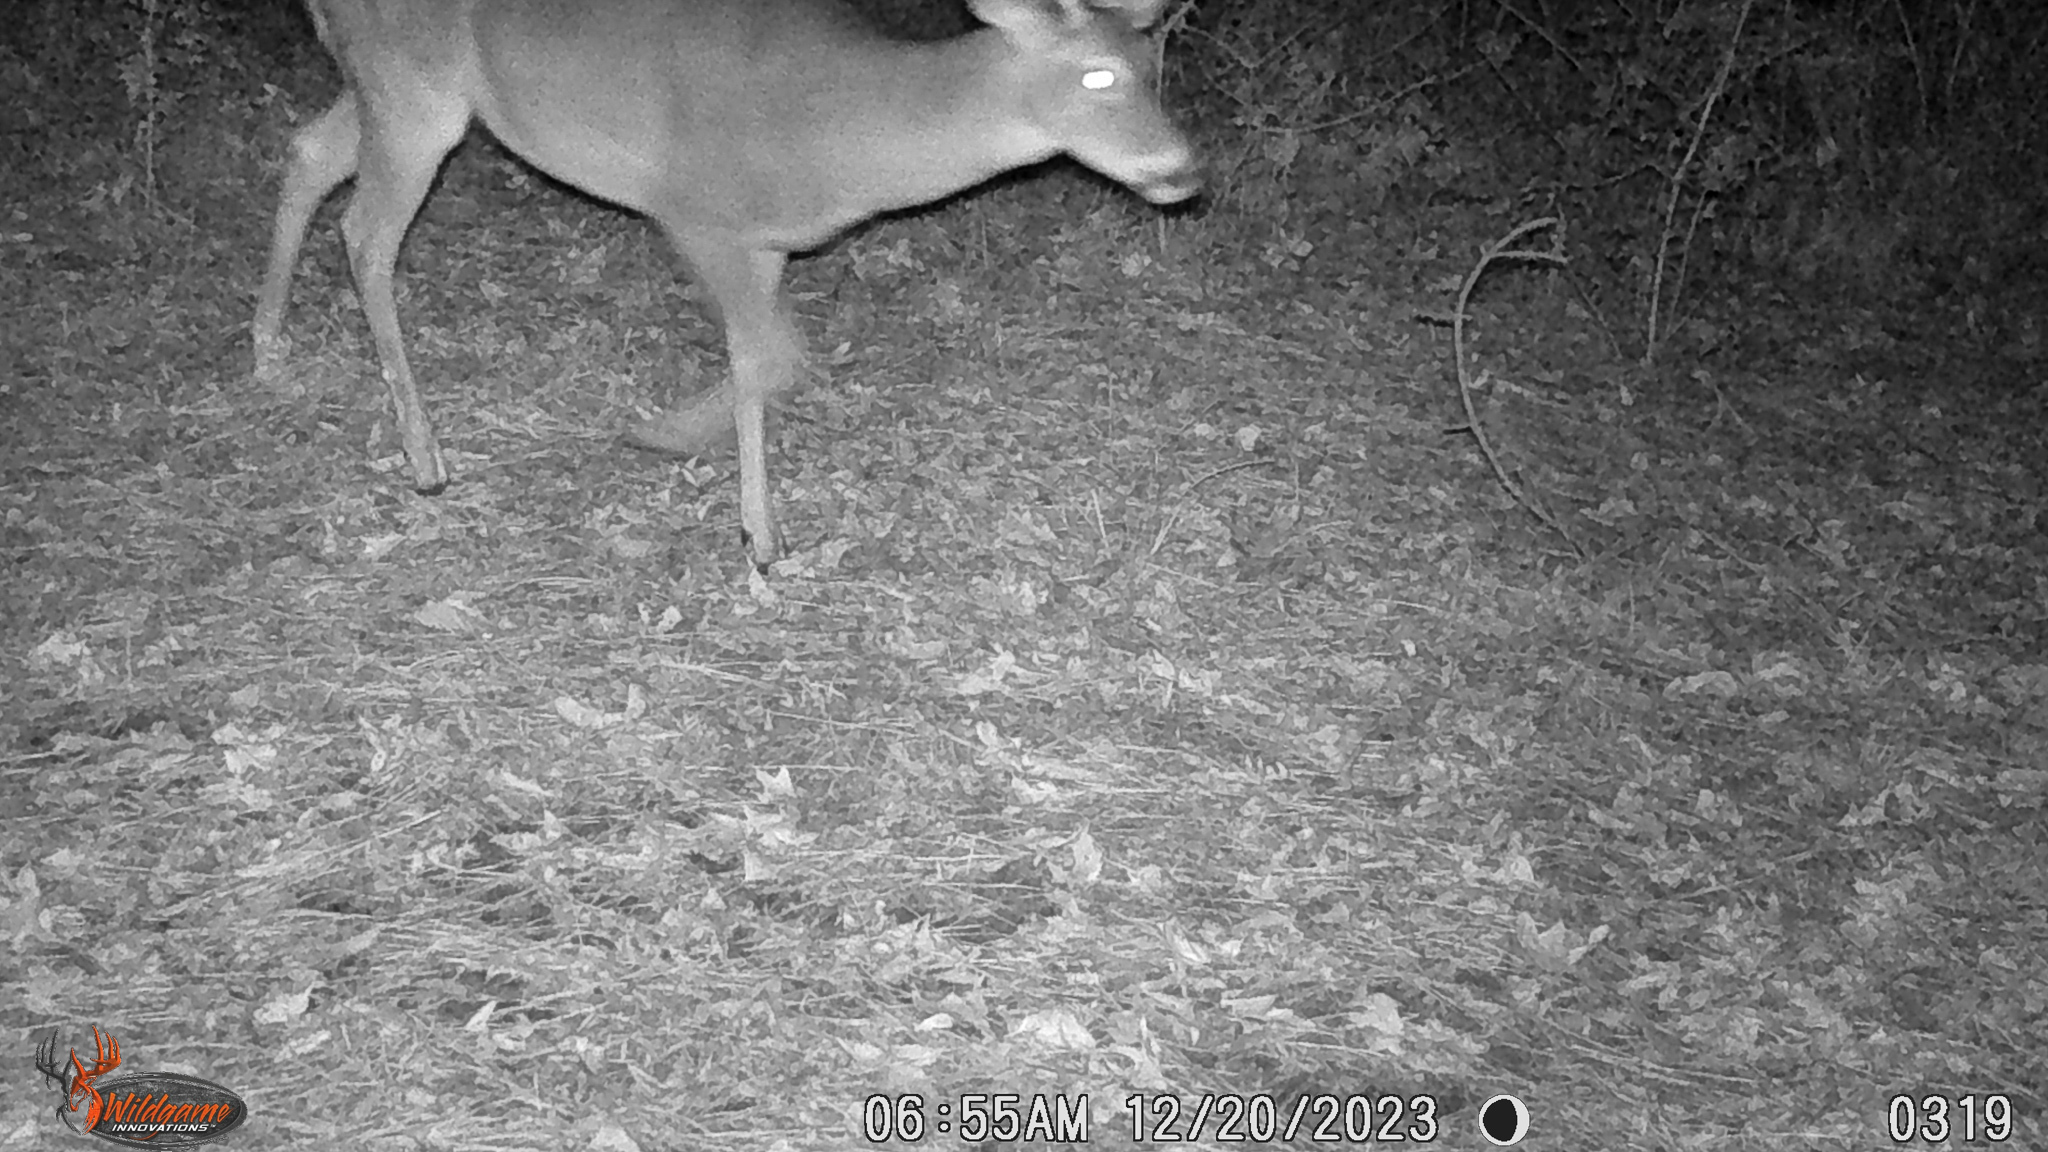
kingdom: Animalia
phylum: Chordata
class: Mammalia
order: Artiodactyla
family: Cervidae
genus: Odocoileus
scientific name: Odocoileus virginianus
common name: White-tailed deer
